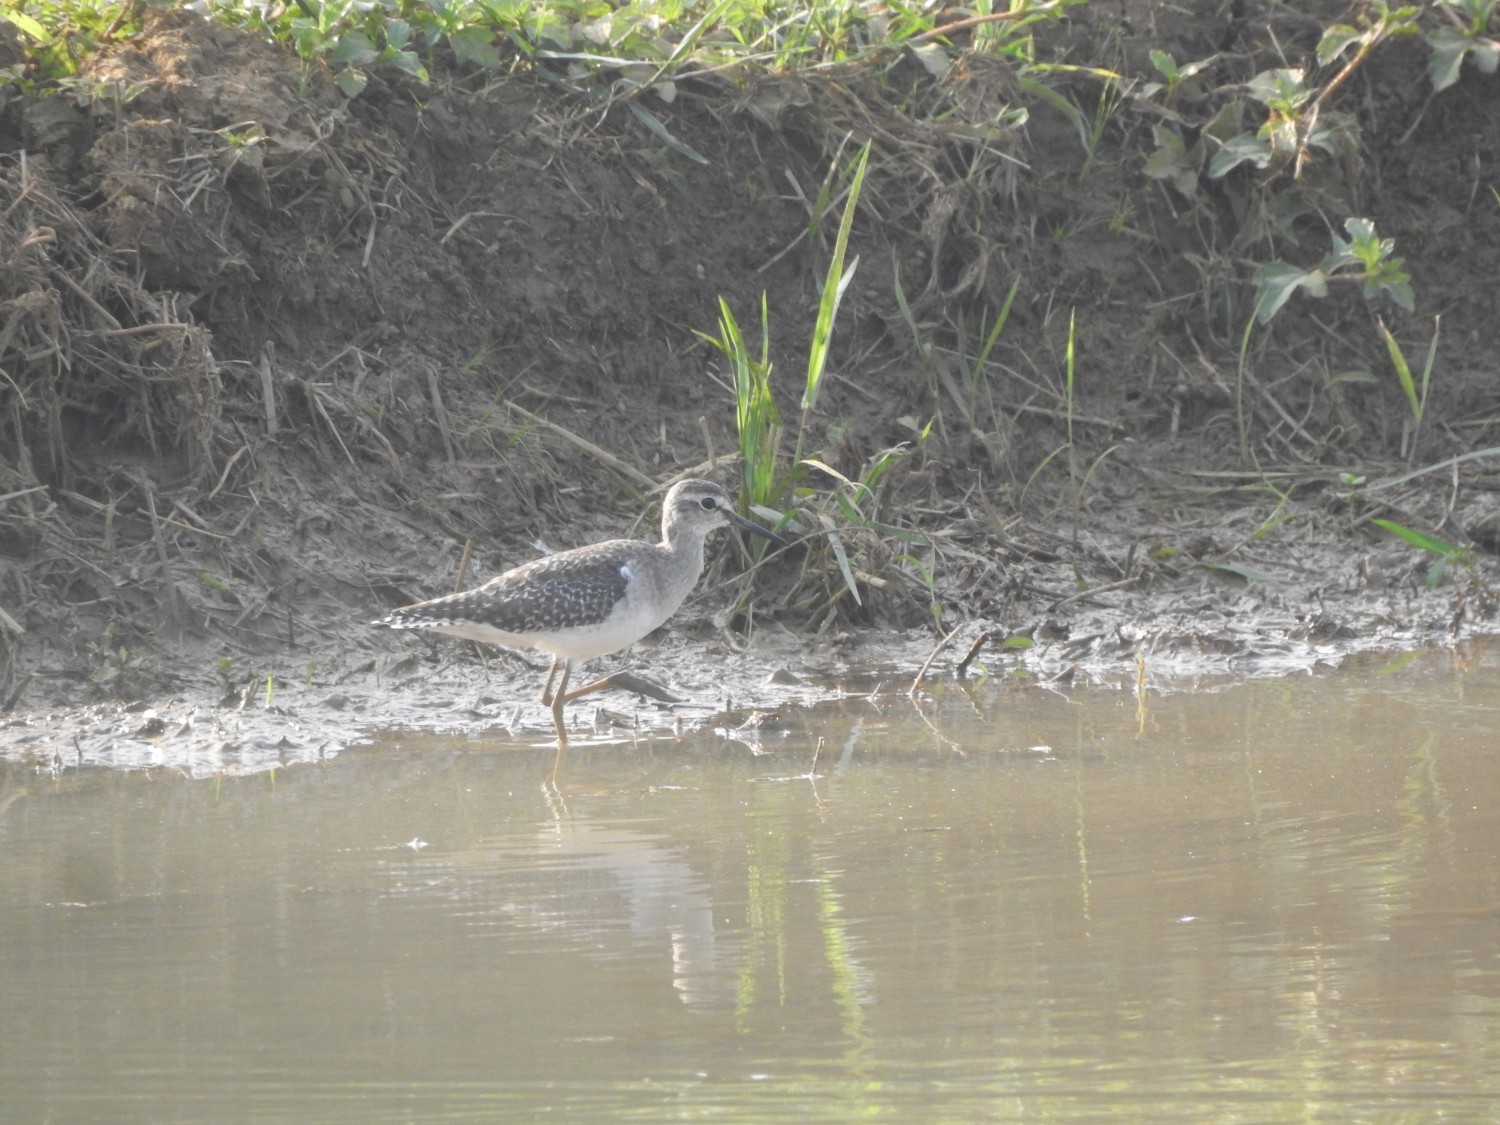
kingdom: Animalia
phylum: Chordata
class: Aves
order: Charadriiformes
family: Scolopacidae
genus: Tringa
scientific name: Tringa glareola
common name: Wood sandpiper
